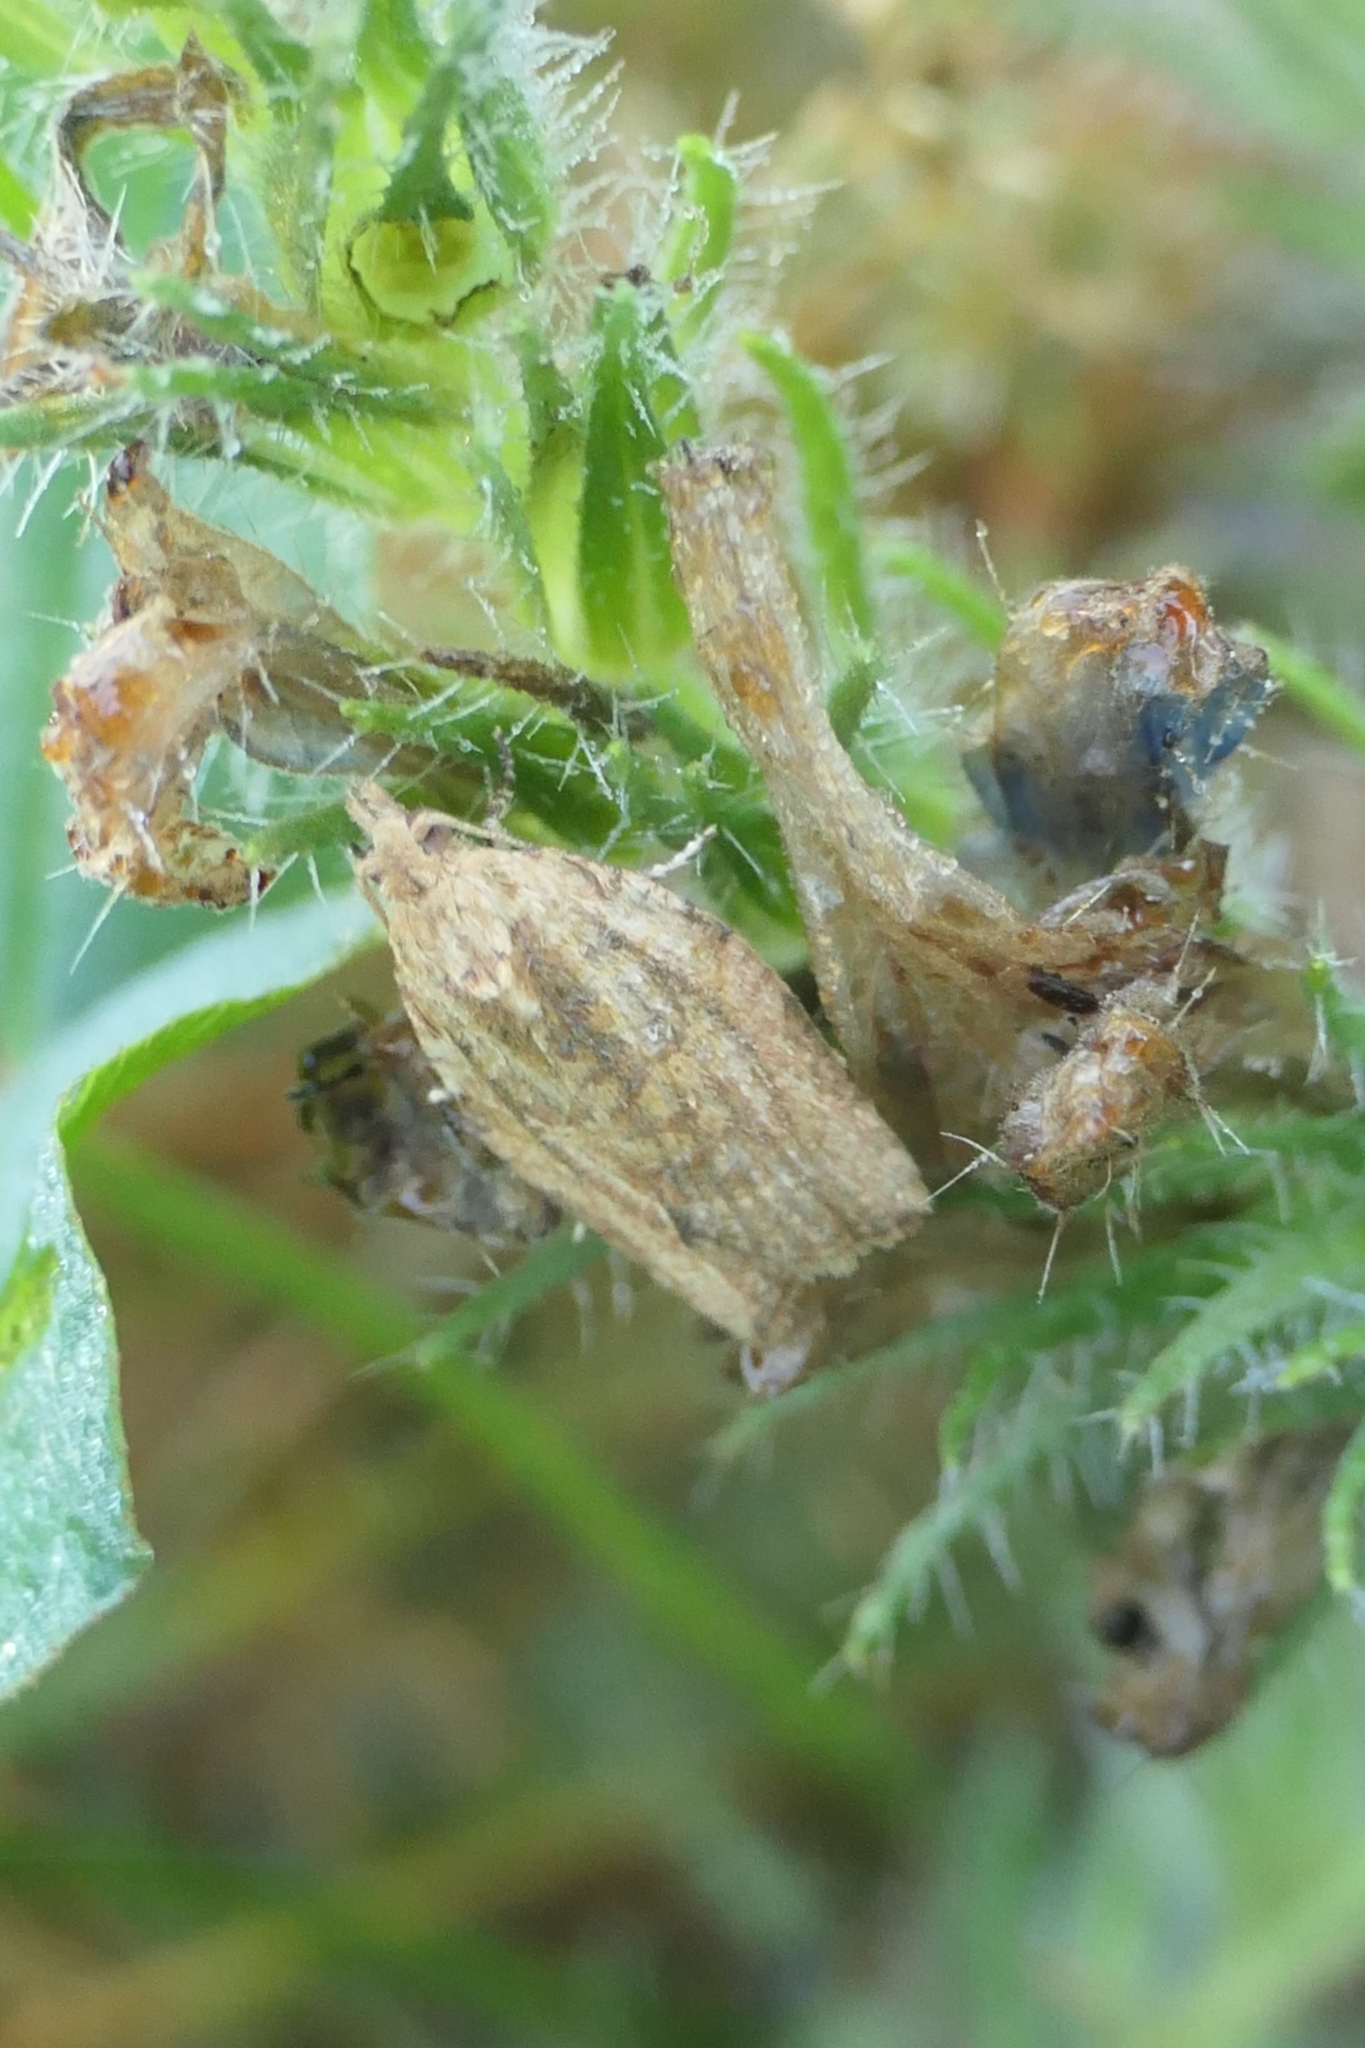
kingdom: Animalia
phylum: Arthropoda
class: Insecta
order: Lepidoptera
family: Tortricidae
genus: Epiphyas
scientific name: Epiphyas postvittana
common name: Light brown apple moth
